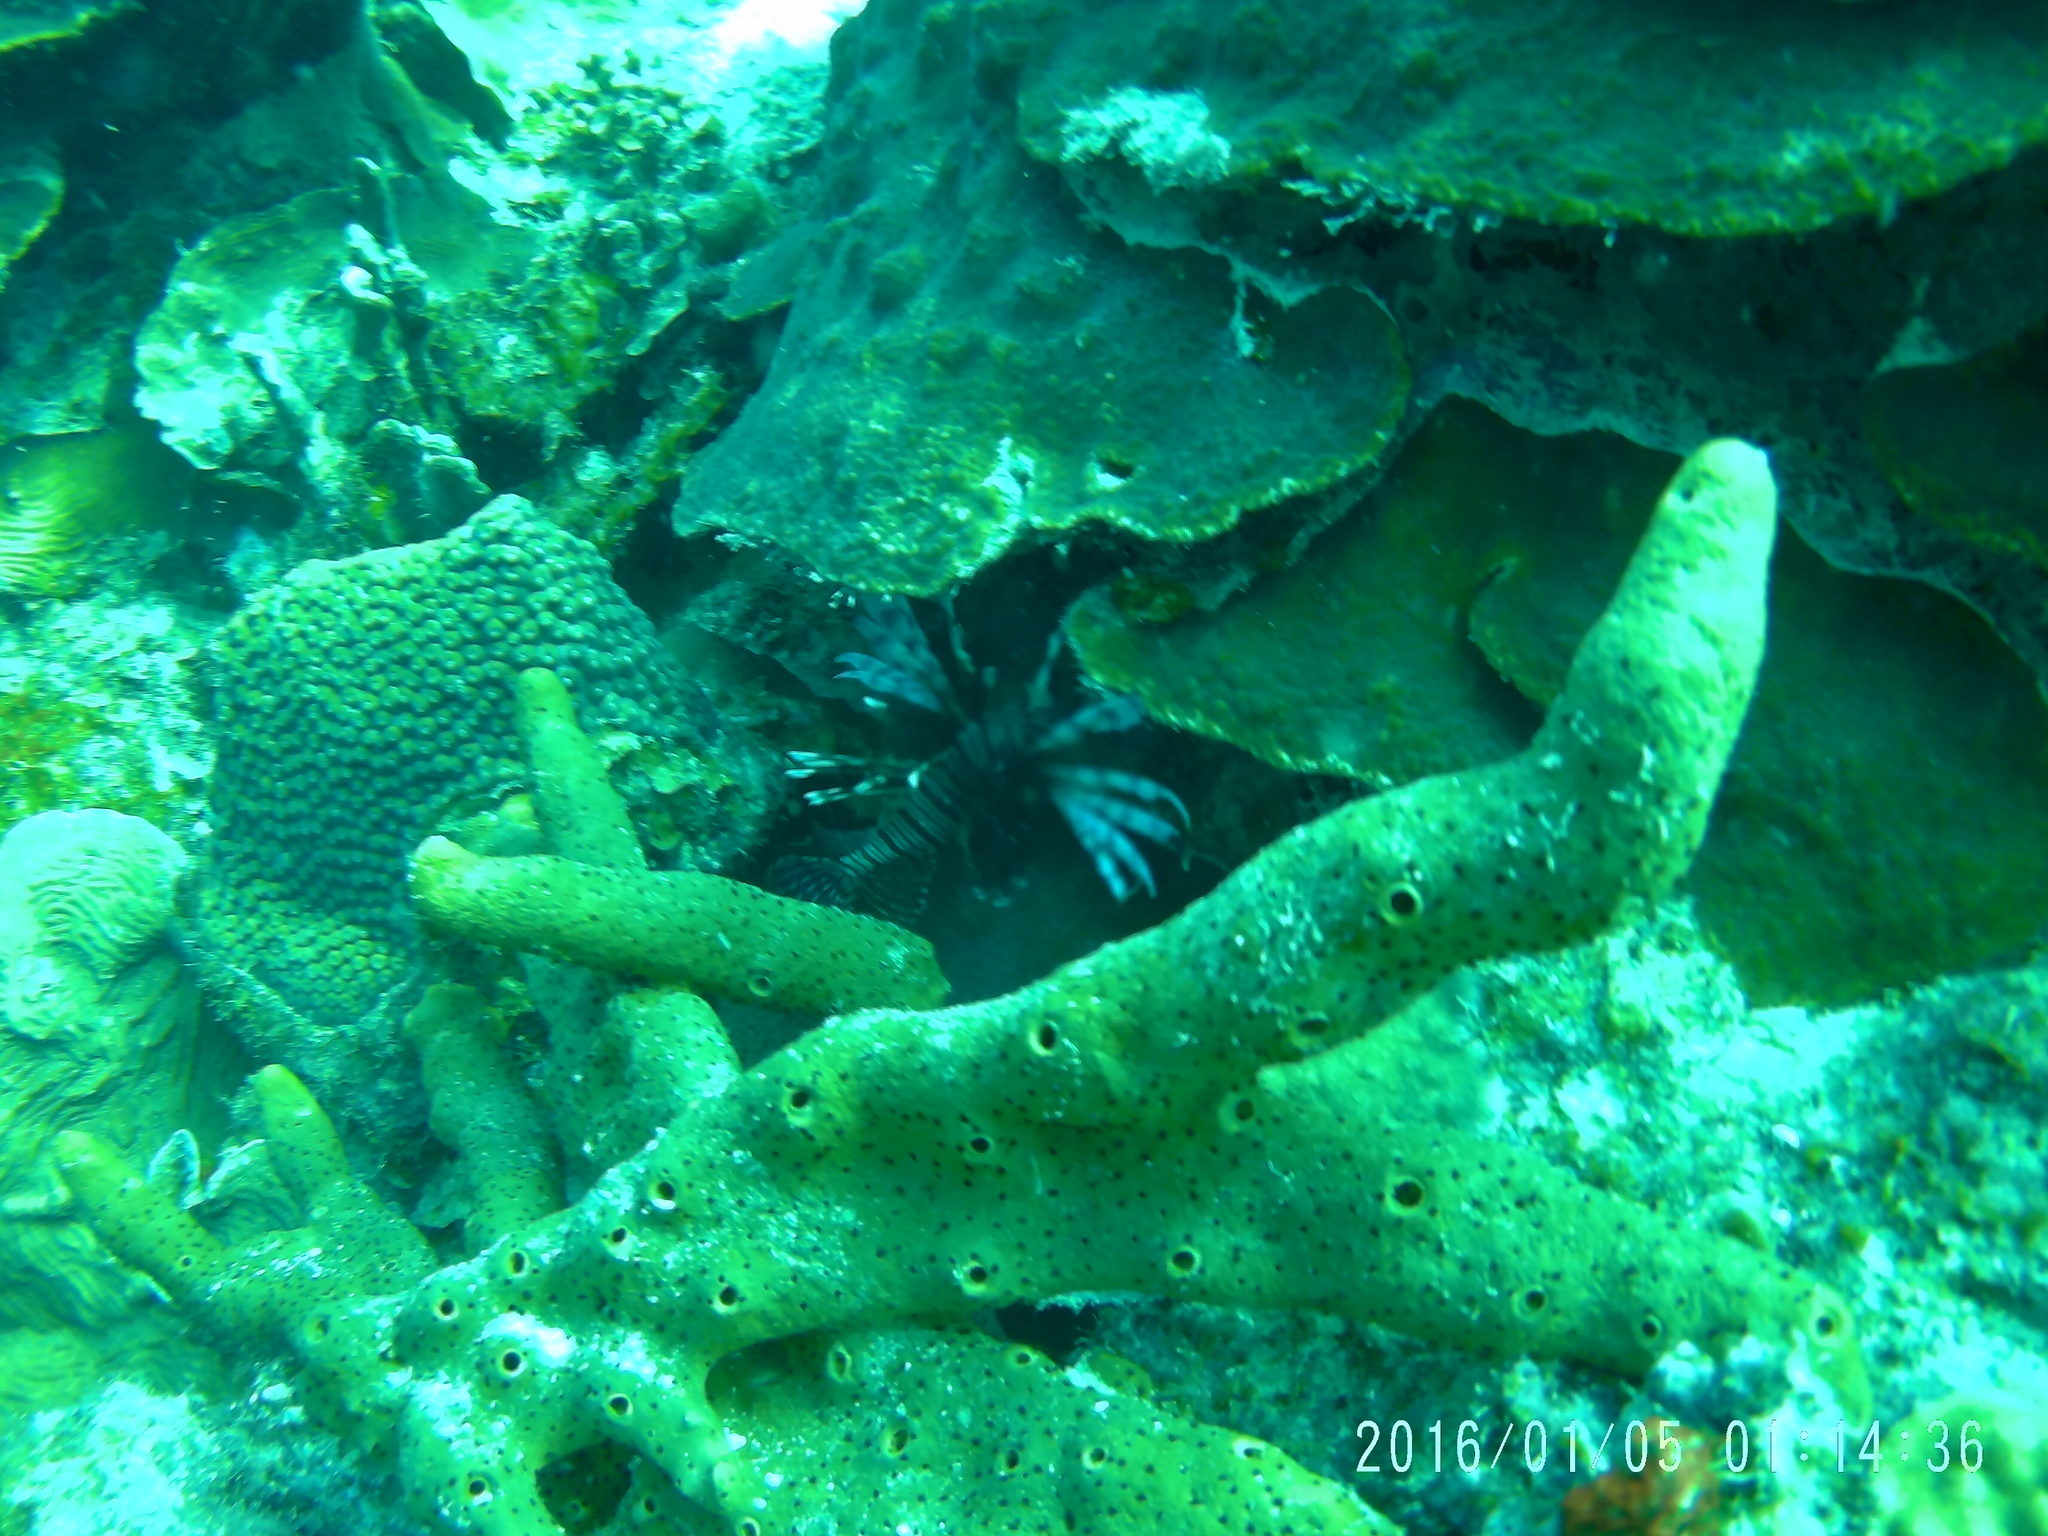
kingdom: Animalia
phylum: Chordata
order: Scorpaeniformes
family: Scorpaenidae
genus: Pterois
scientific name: Pterois volitans
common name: Lionfish
